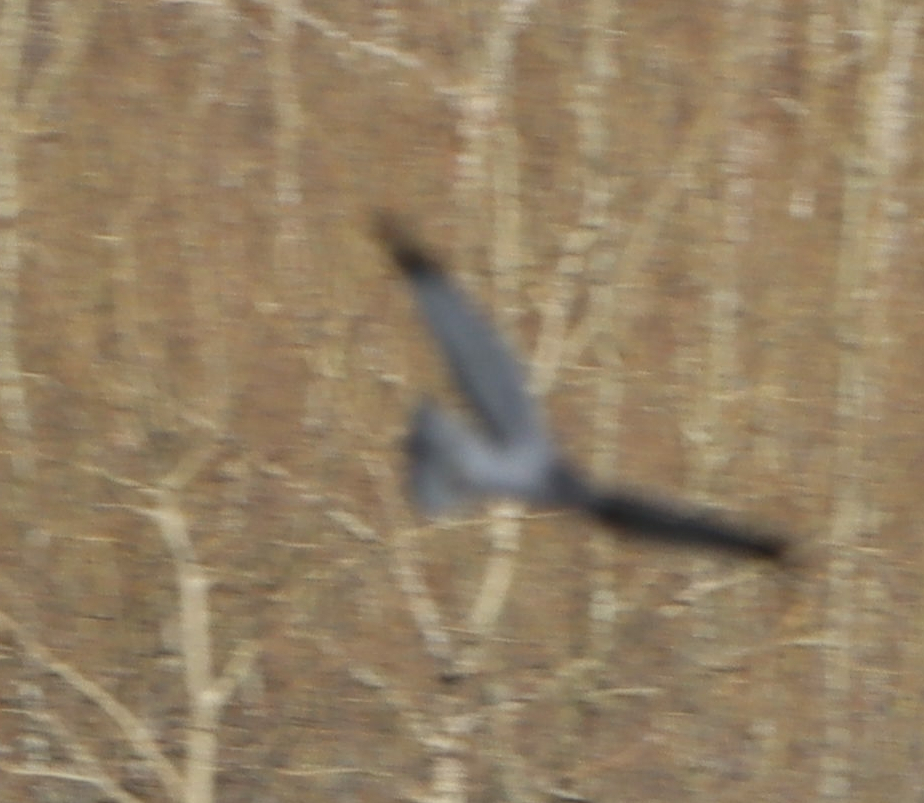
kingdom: Animalia
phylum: Chordata
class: Aves
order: Accipitriformes
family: Accipitridae
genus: Circus
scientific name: Circus cyaneus
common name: Hen harrier
